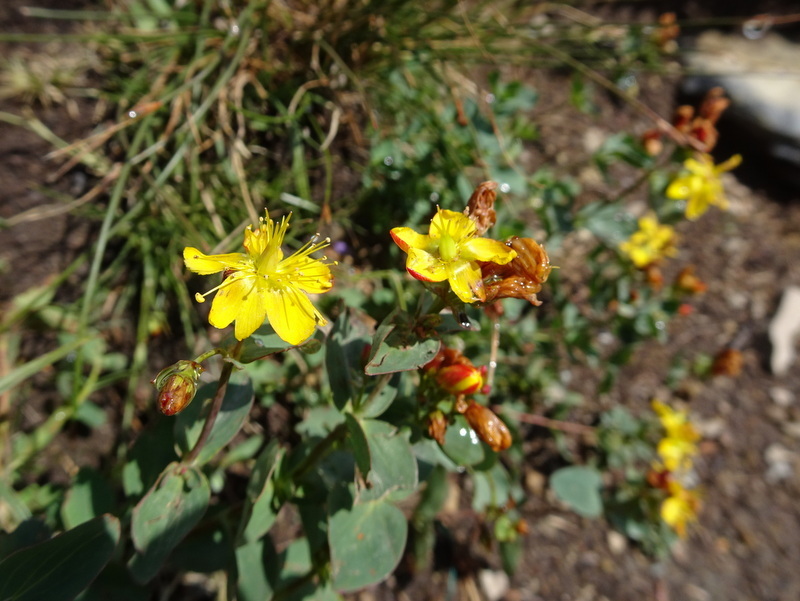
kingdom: Plantae
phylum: Tracheophyta
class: Magnoliopsida
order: Malpighiales
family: Hypericaceae
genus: Hypericum
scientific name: Hypericum scouleri
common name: Scouler's st. john's-wort
